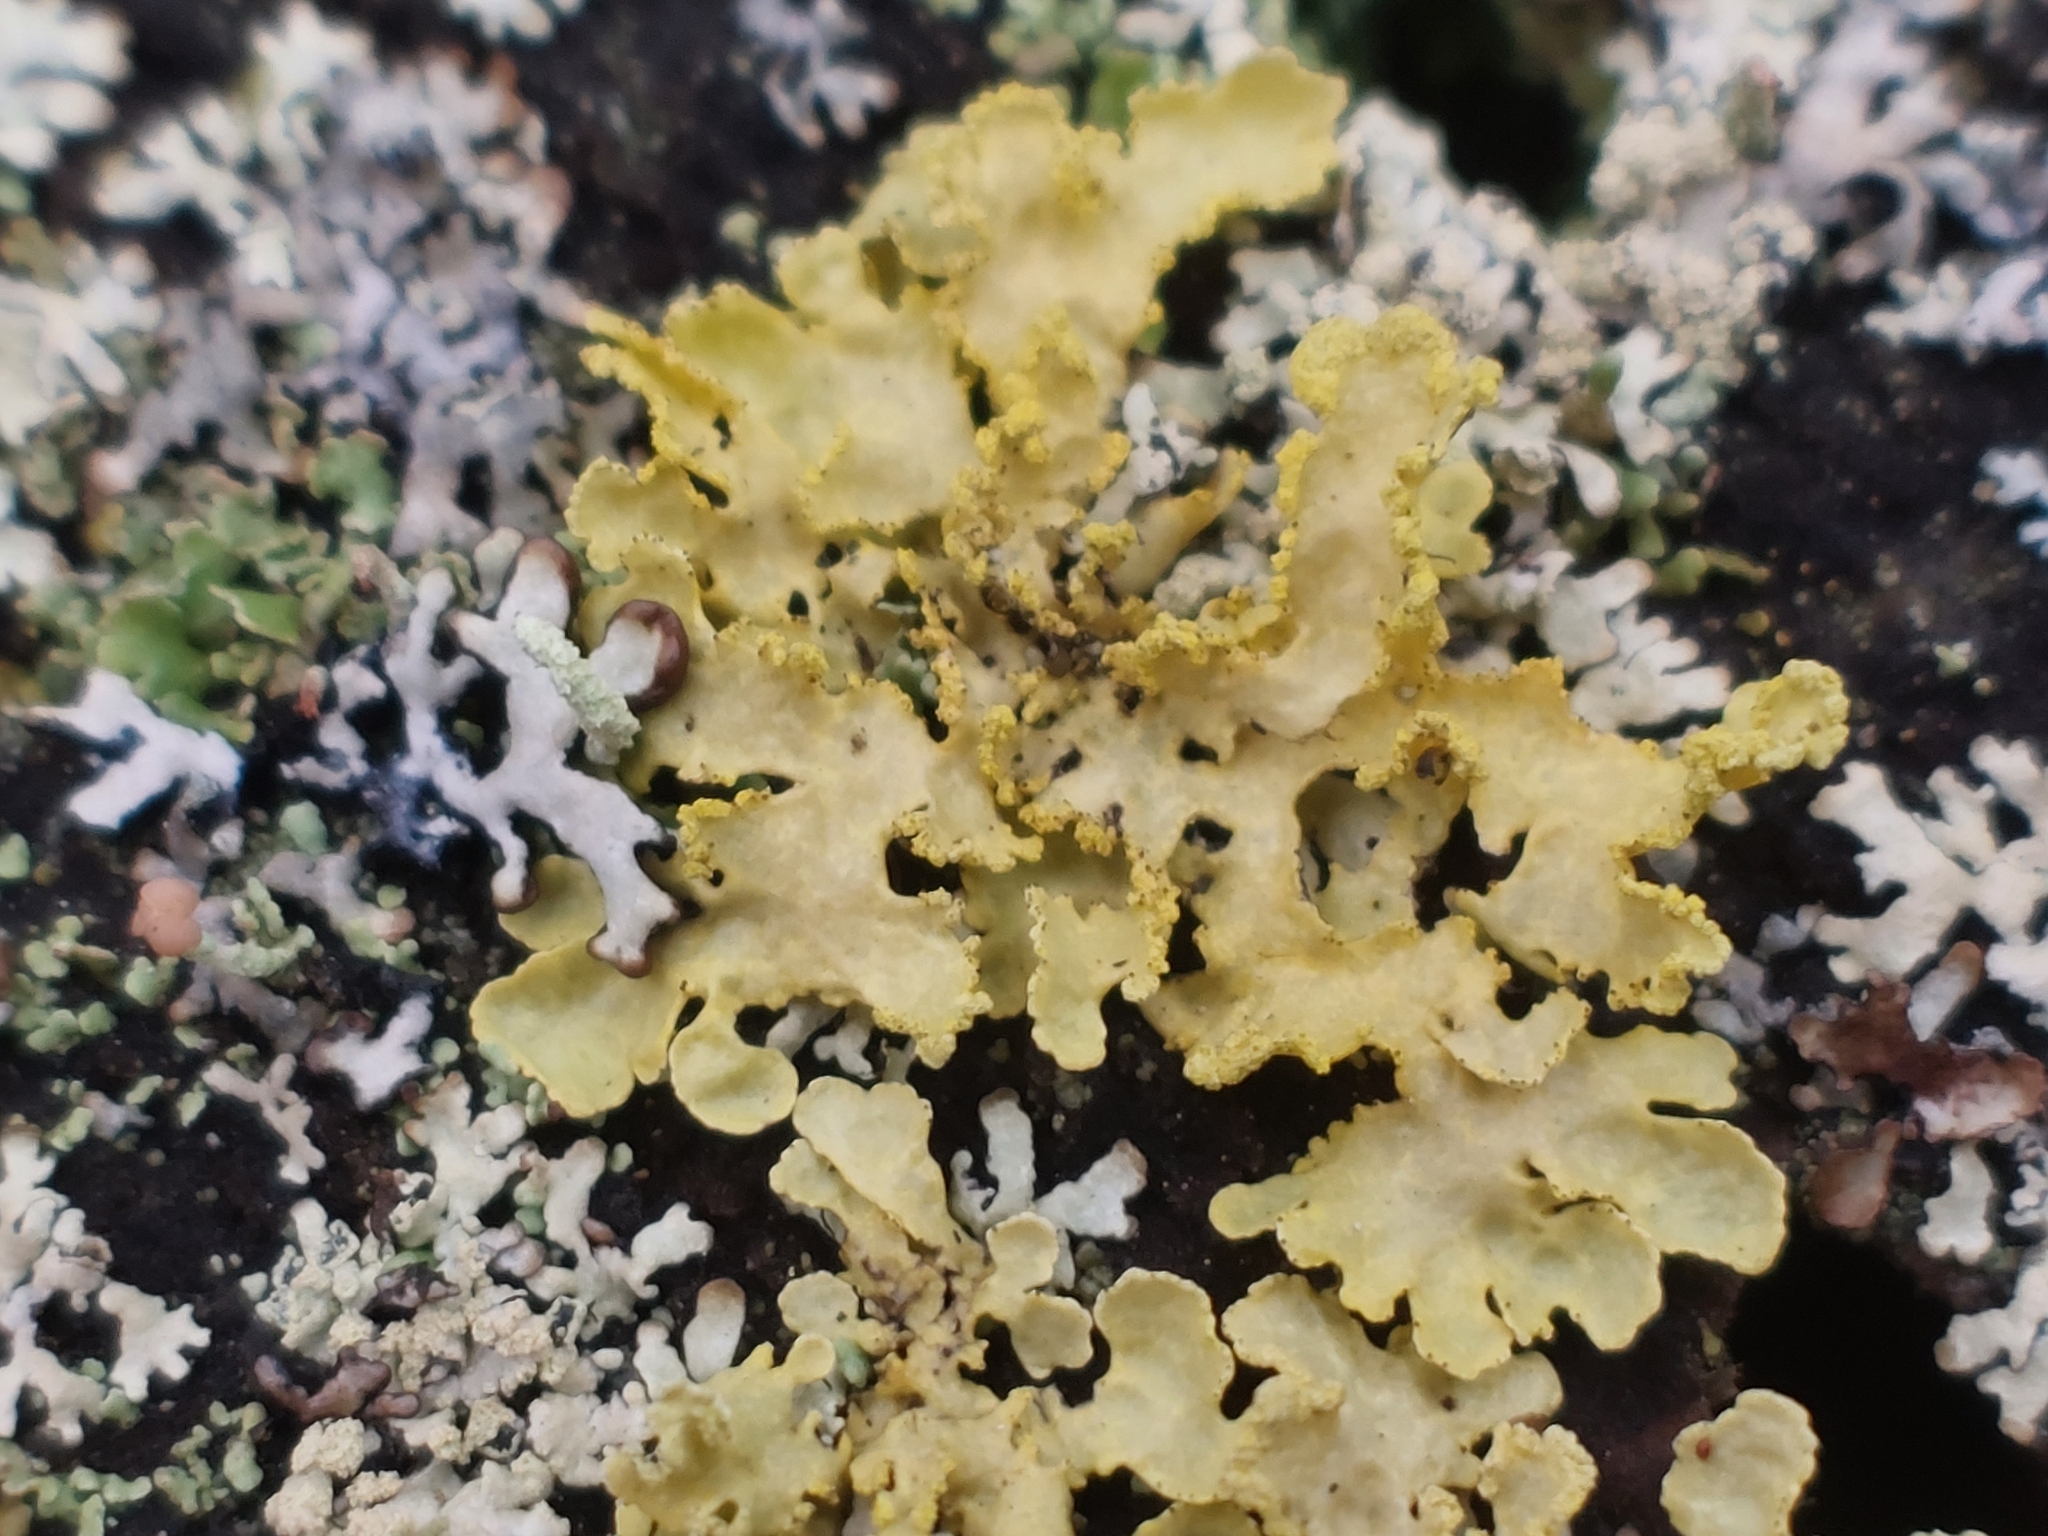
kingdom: Fungi
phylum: Ascomycota
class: Lecanoromycetes
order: Lecanorales
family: Parmeliaceae
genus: Vulpicida
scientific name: Vulpicida pinastri
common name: Powdered sunshine lichen
